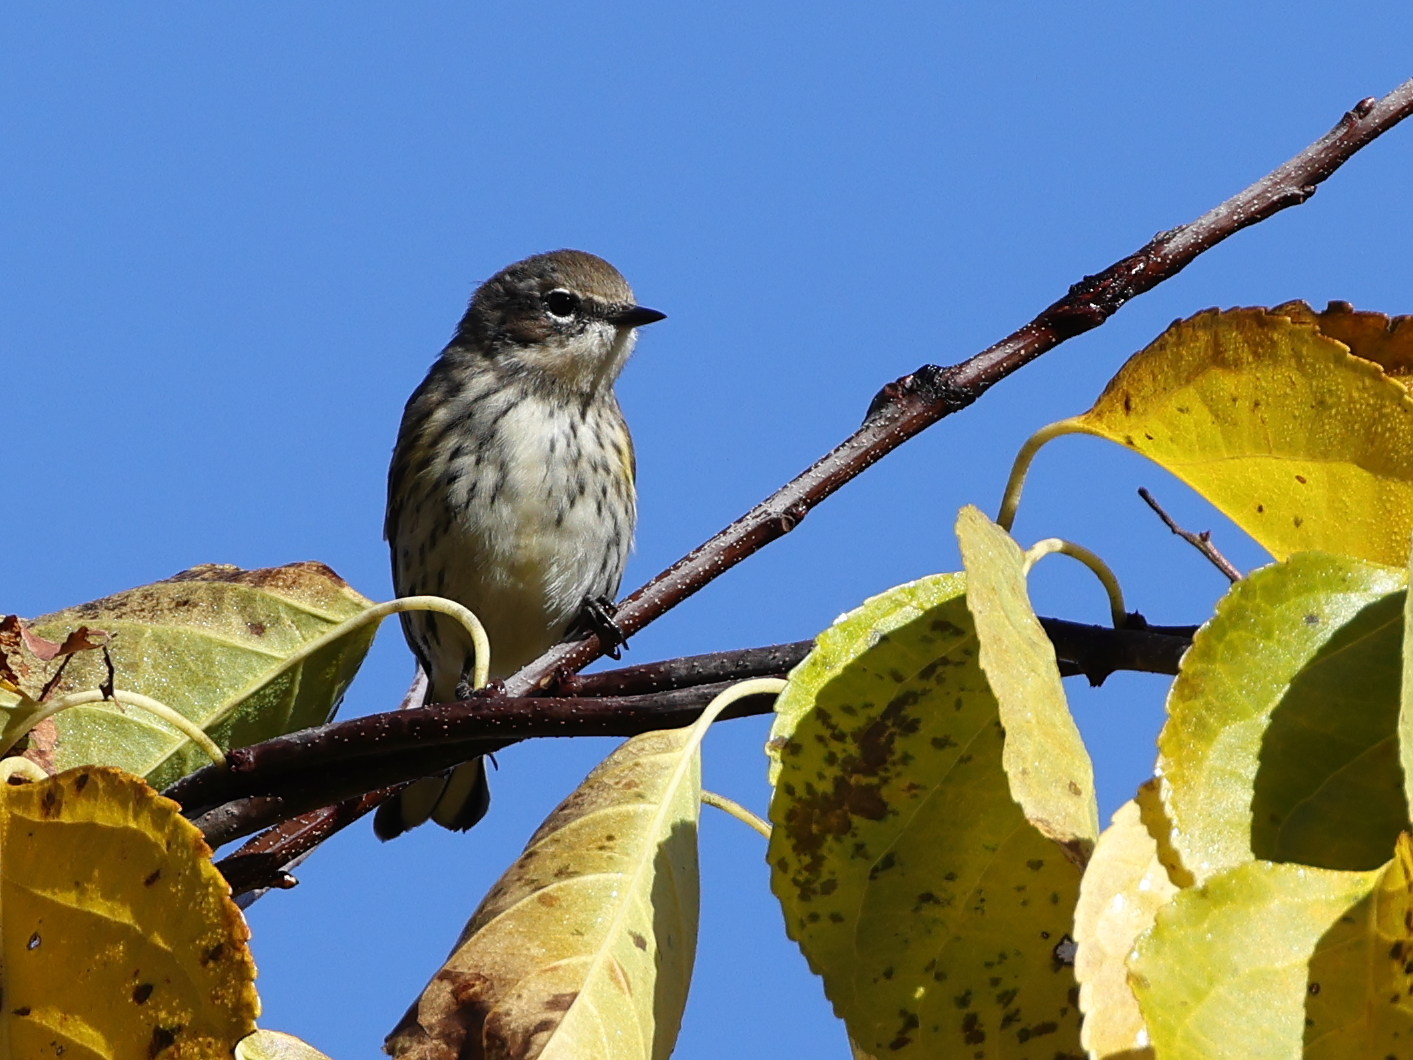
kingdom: Animalia
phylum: Chordata
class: Aves
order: Passeriformes
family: Parulidae
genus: Setophaga
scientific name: Setophaga coronata
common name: Myrtle warbler
